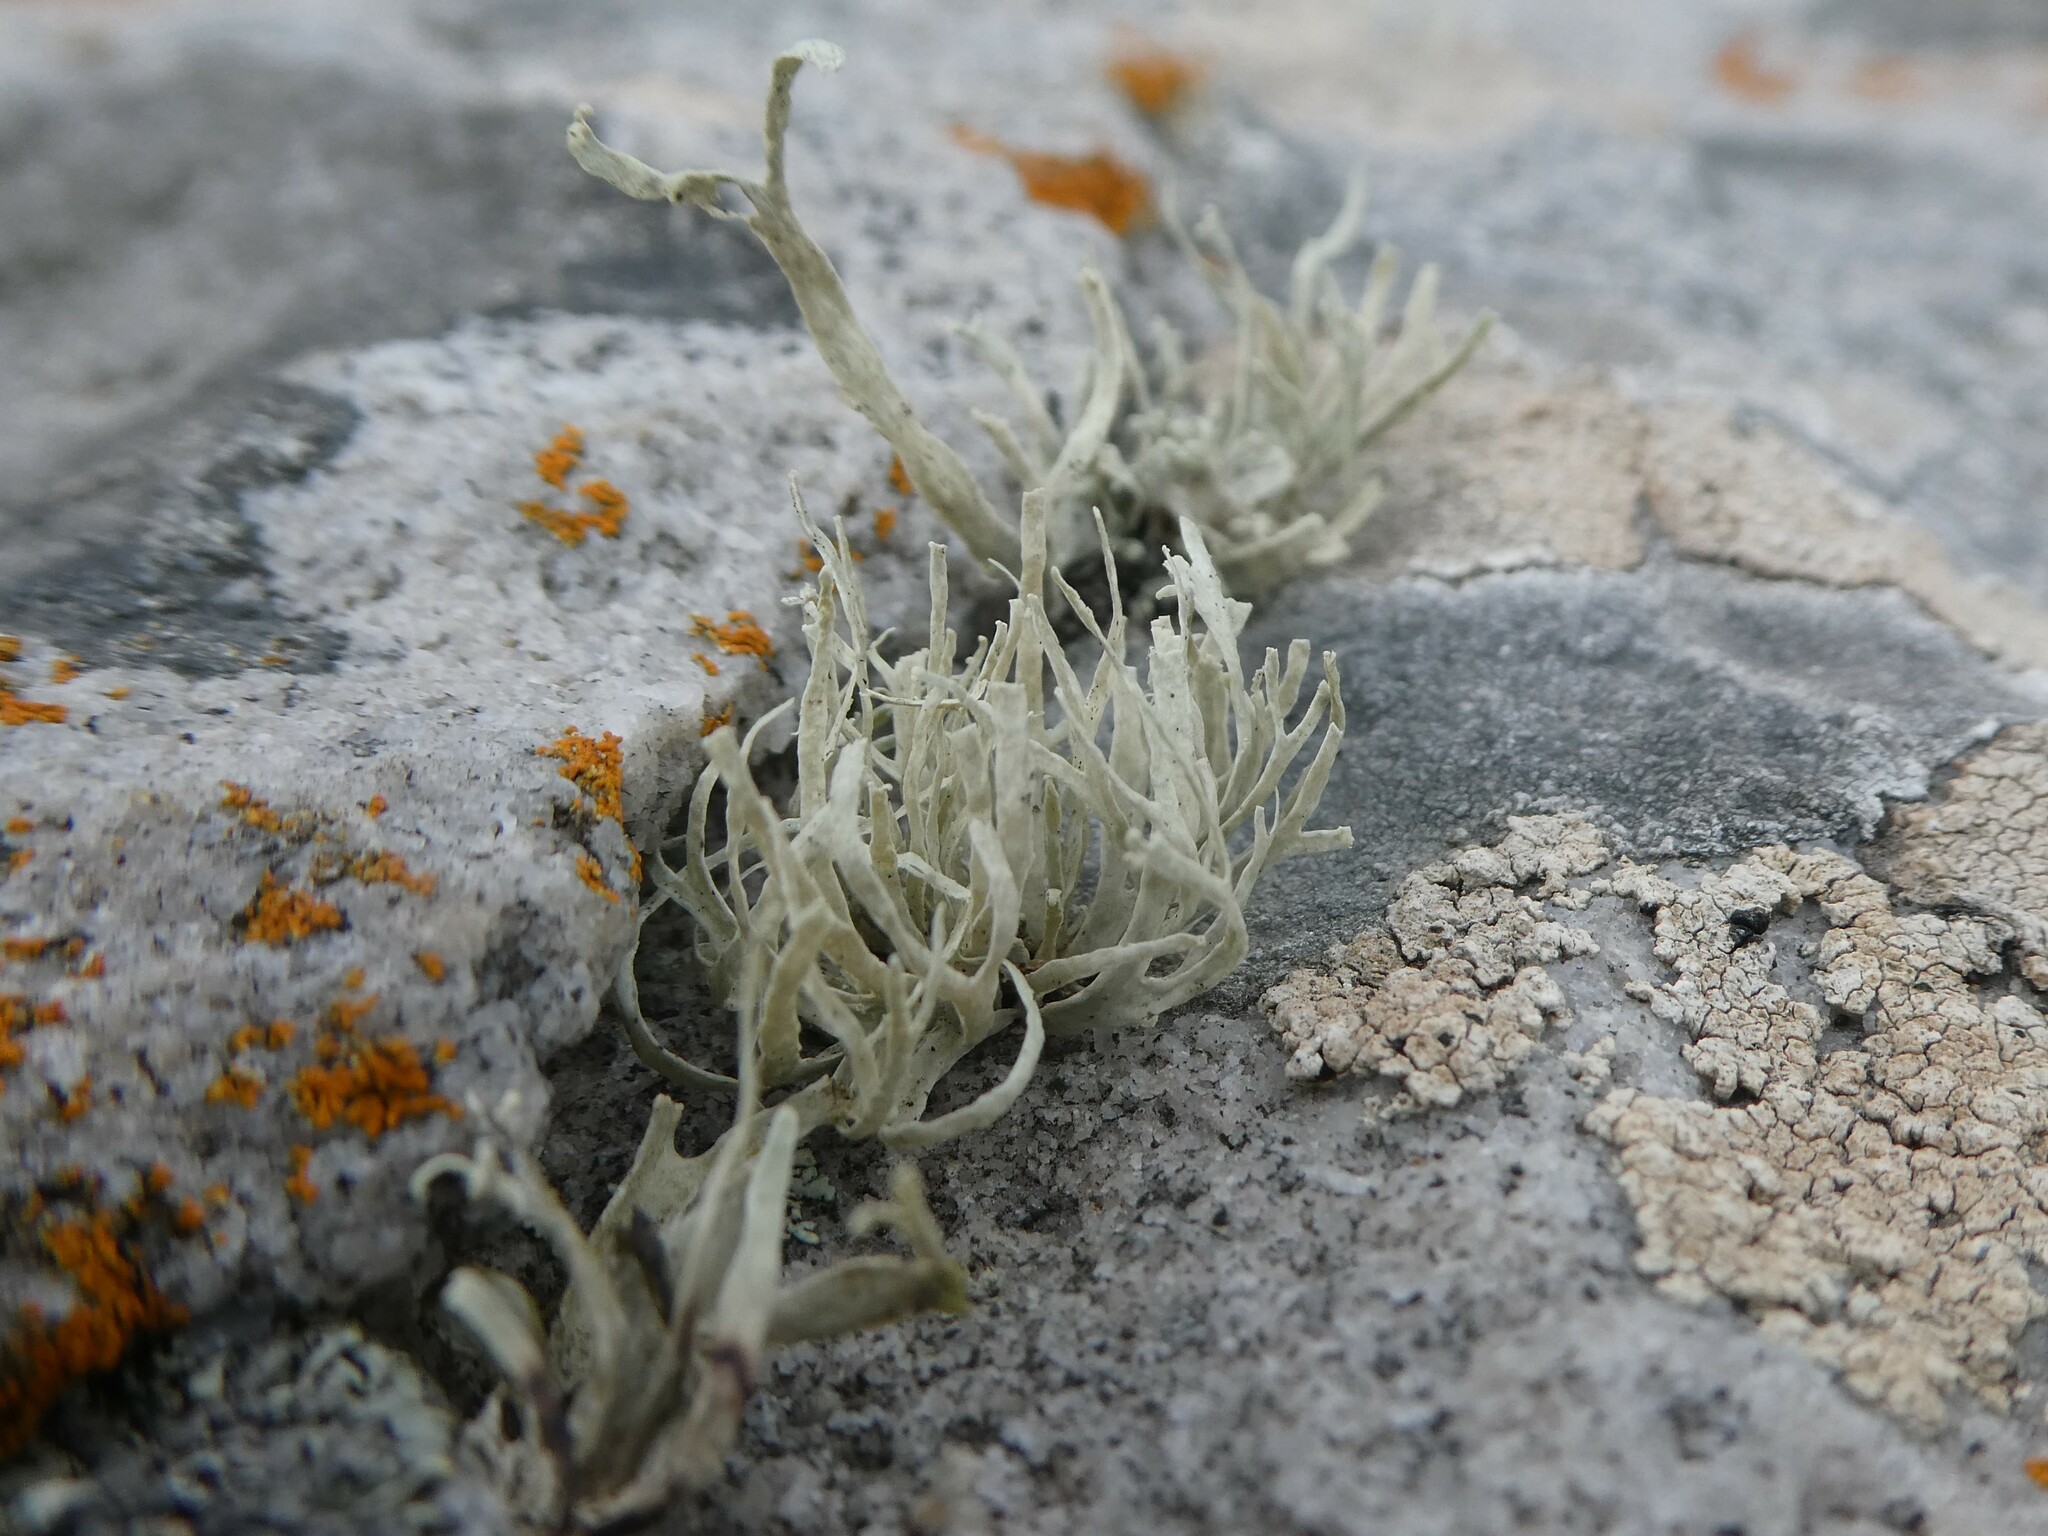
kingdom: Fungi
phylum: Ascomycota
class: Lecanoromycetes
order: Pertusariales
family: Ochrolechiaceae
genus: Ochrolechia
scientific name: Ochrolechia antarctica
